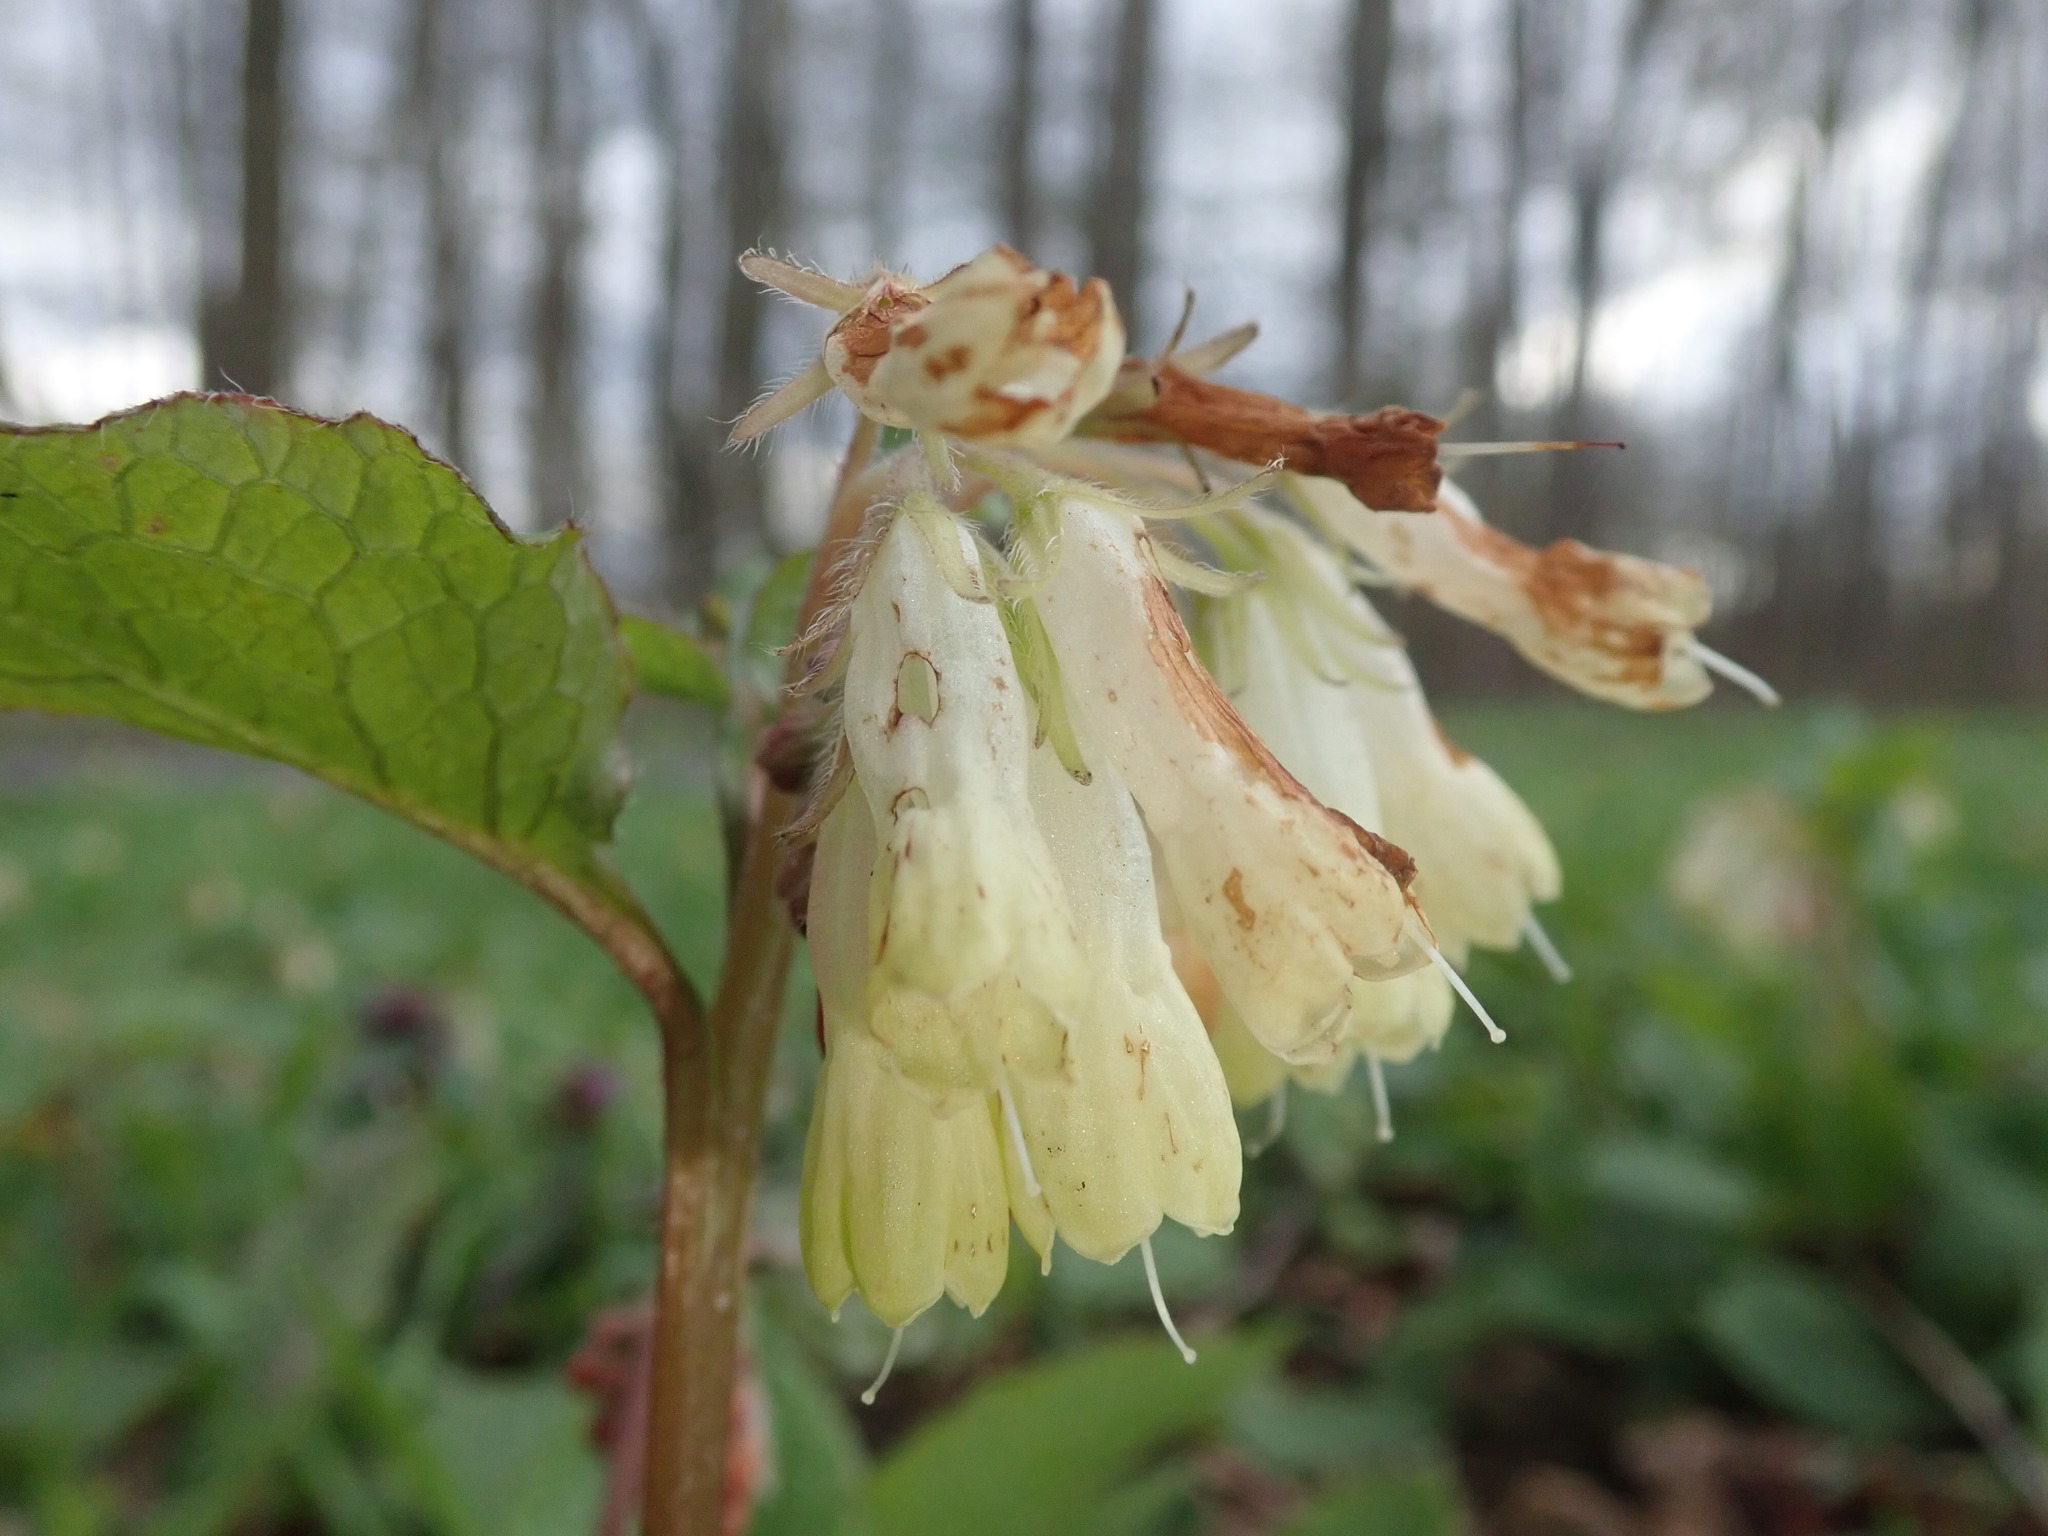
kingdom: Plantae
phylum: Tracheophyta
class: Magnoliopsida
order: Boraginales
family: Boraginaceae
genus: Symphytum
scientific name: Symphytum tuberosum
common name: Tuberous comfrey
